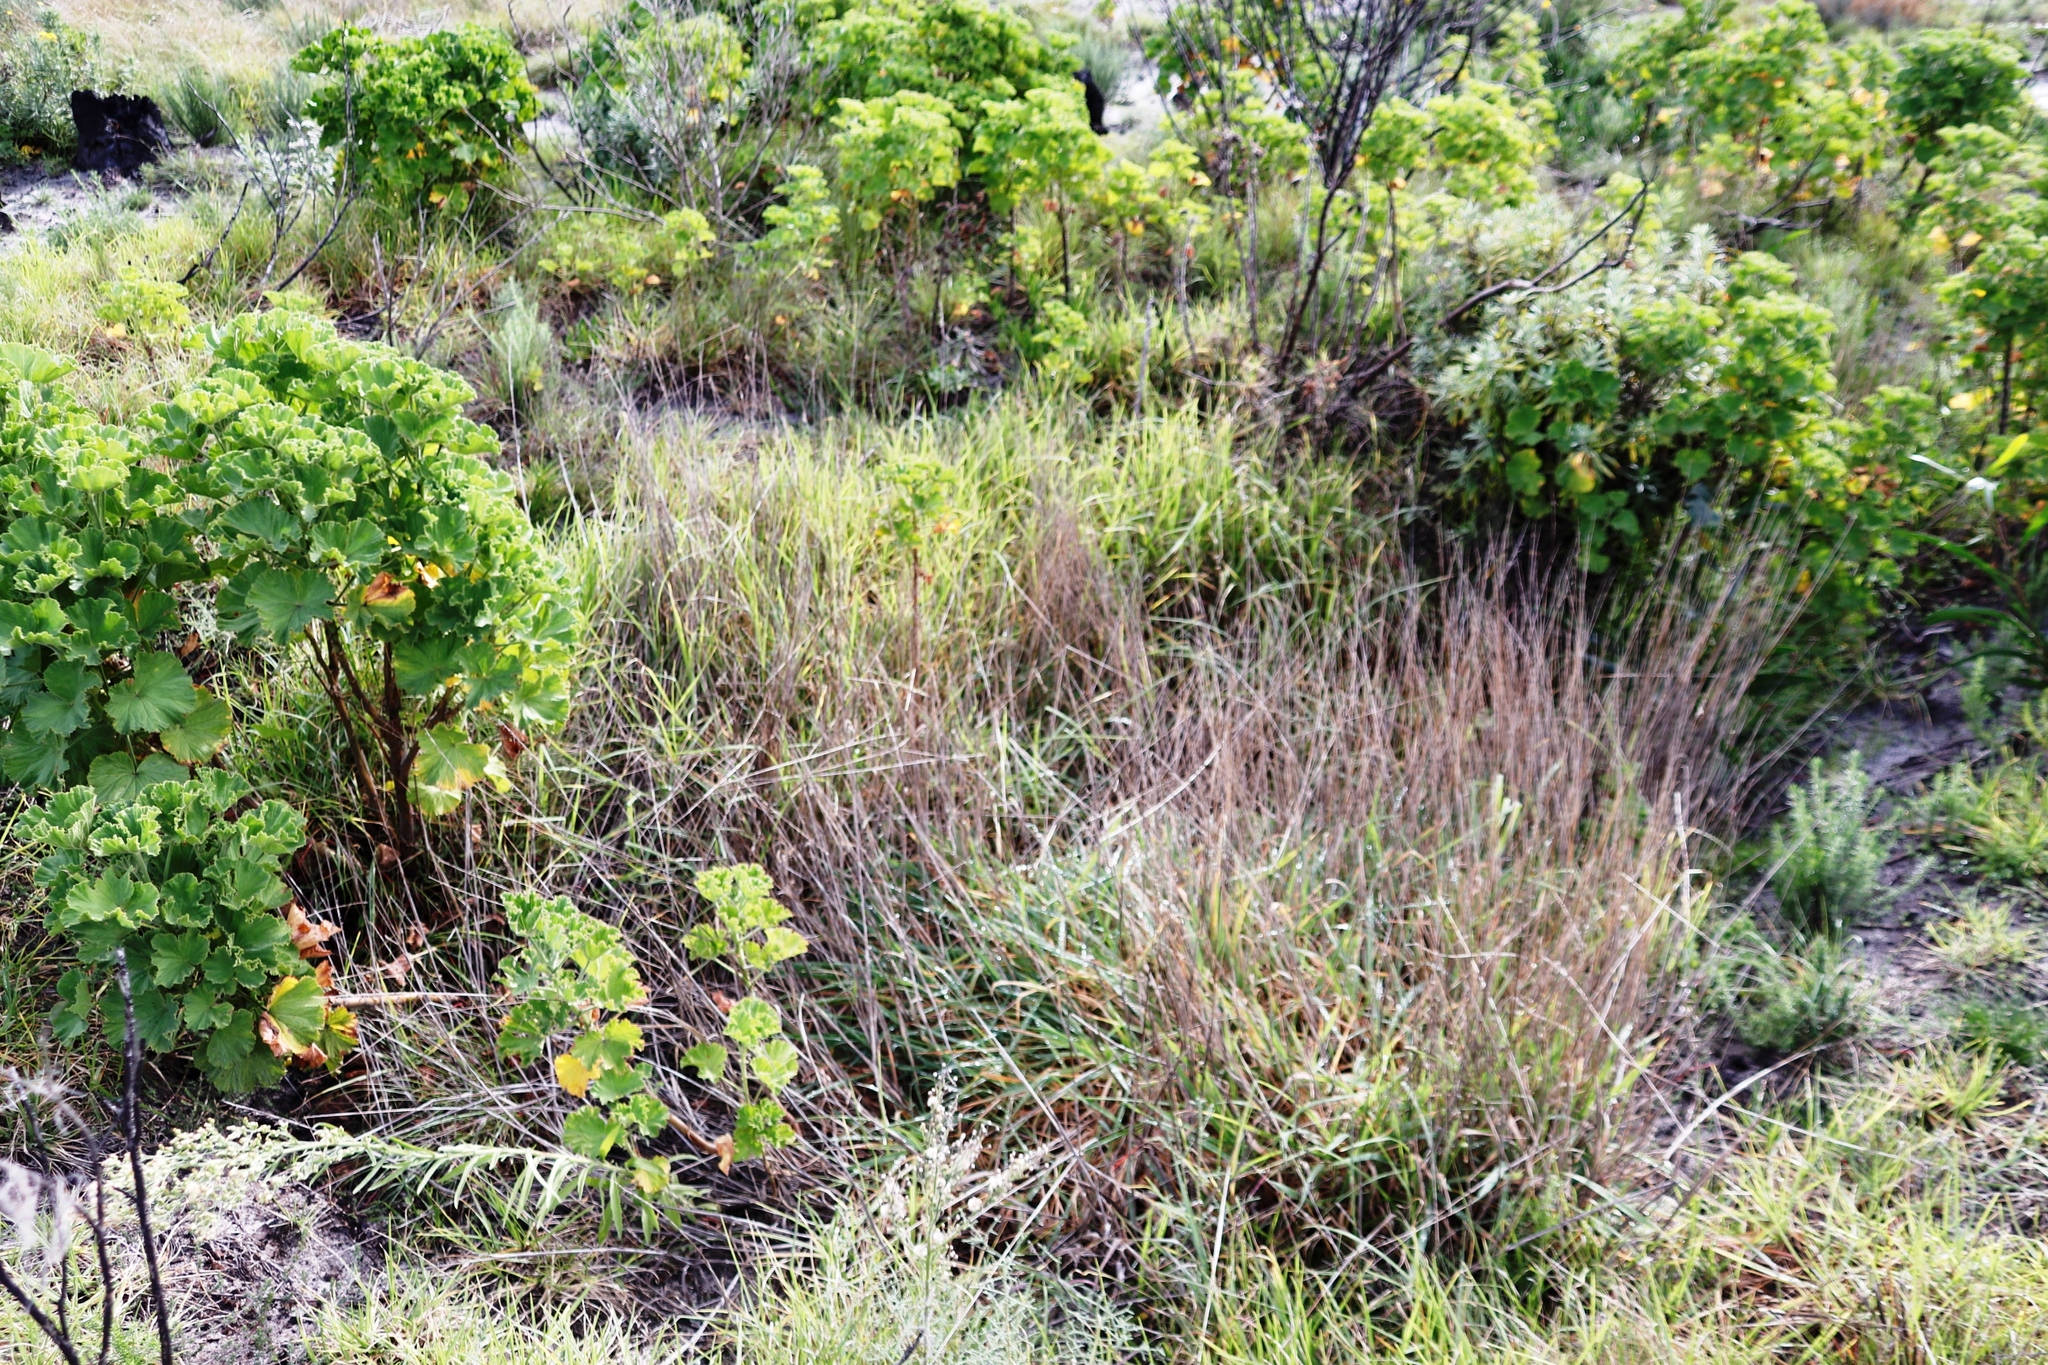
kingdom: Plantae
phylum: Tracheophyta
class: Magnoliopsida
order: Geraniales
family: Geraniaceae
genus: Pelargonium
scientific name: Pelargonium cucullatum
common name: Tree pelargonium
